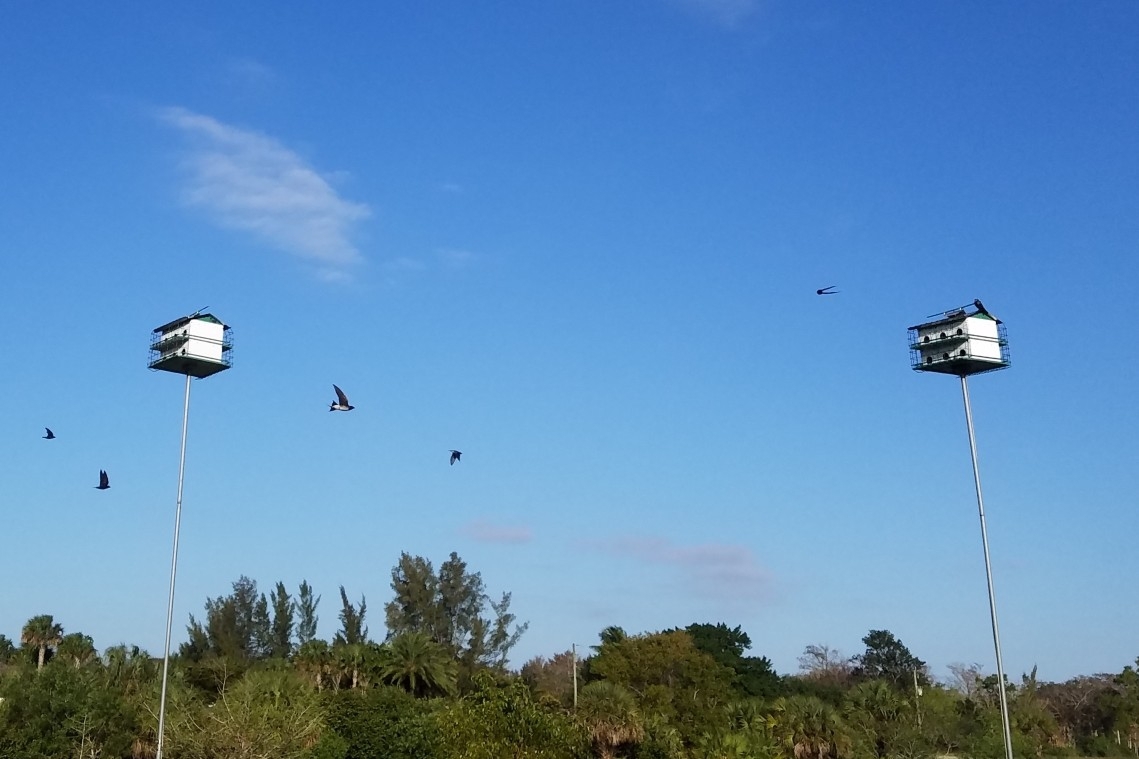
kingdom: Animalia
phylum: Chordata
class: Aves
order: Passeriformes
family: Hirundinidae
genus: Progne
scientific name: Progne subis
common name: Purple martin
